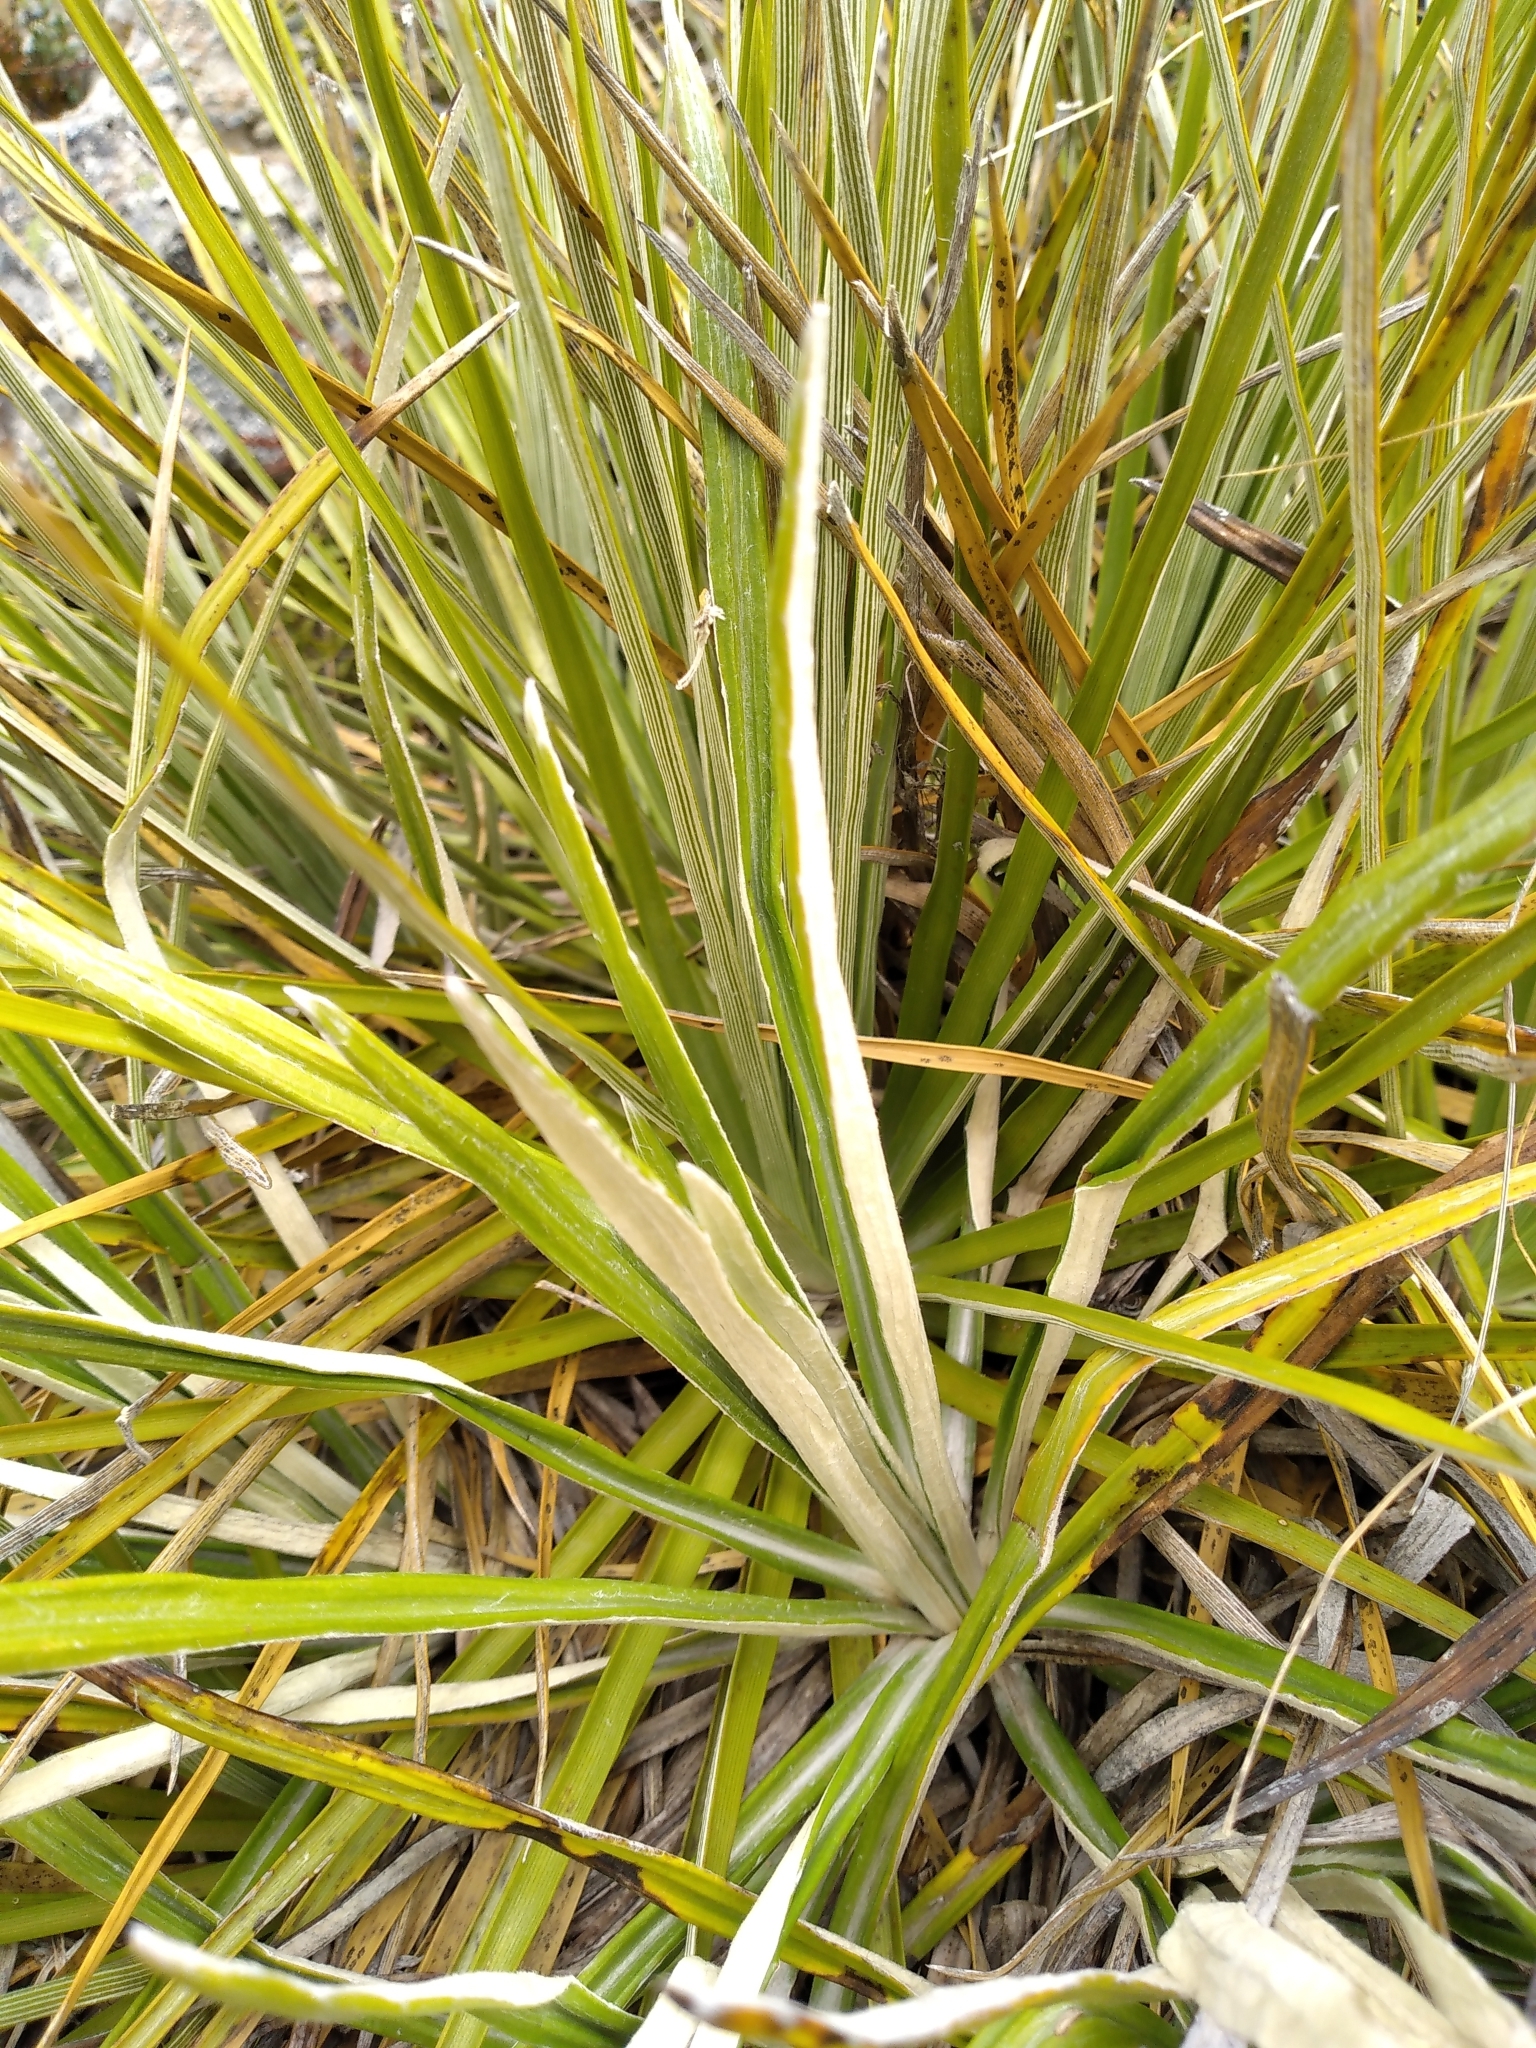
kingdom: Plantae
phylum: Tracheophyta
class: Magnoliopsida
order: Asterales
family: Asteraceae
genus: Celmisia
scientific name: Celmisia pseudolyallii
